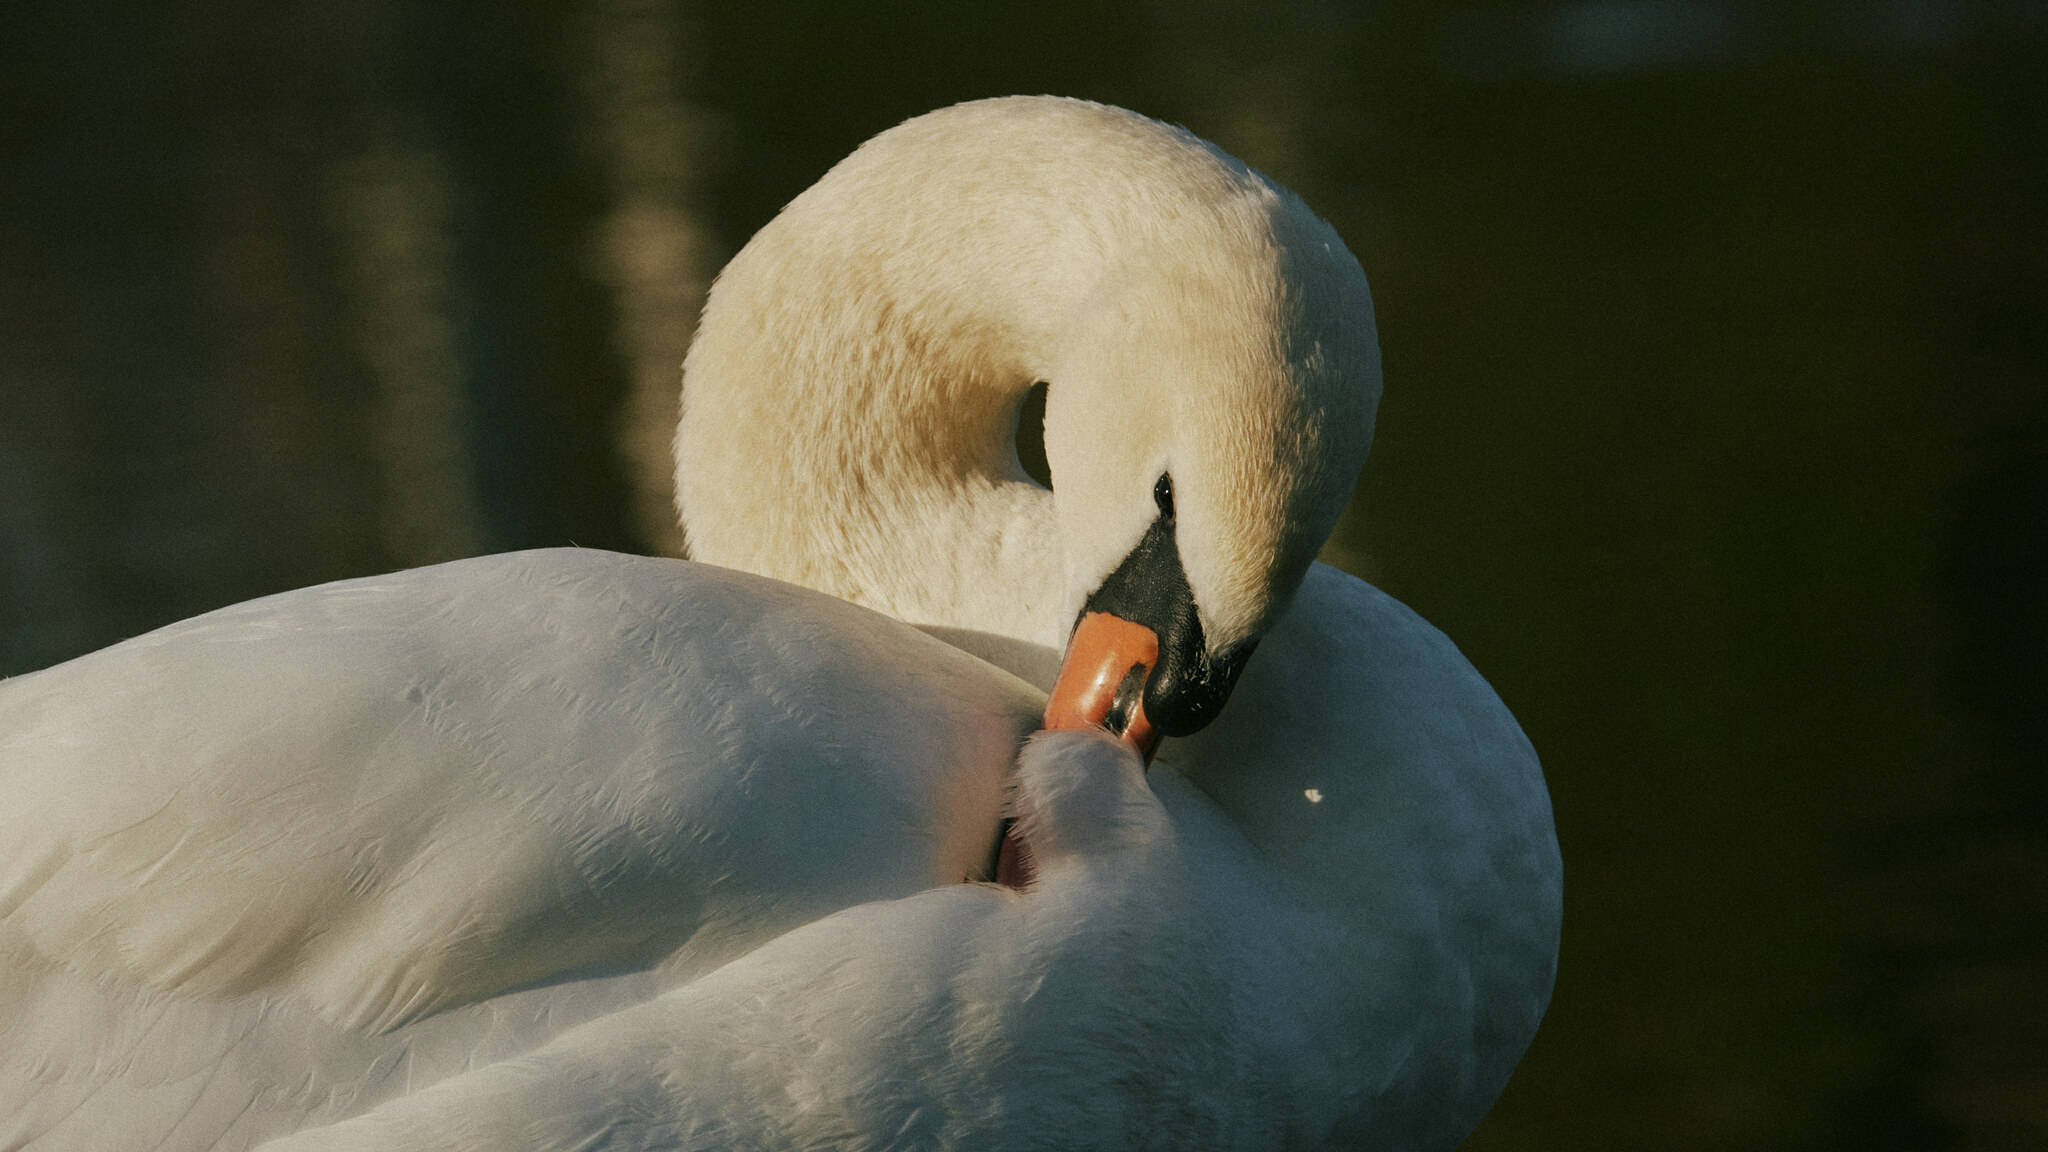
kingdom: Animalia
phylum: Chordata
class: Aves
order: Anseriformes
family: Anatidae
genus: Cygnus
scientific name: Cygnus olor
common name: Mute swan
